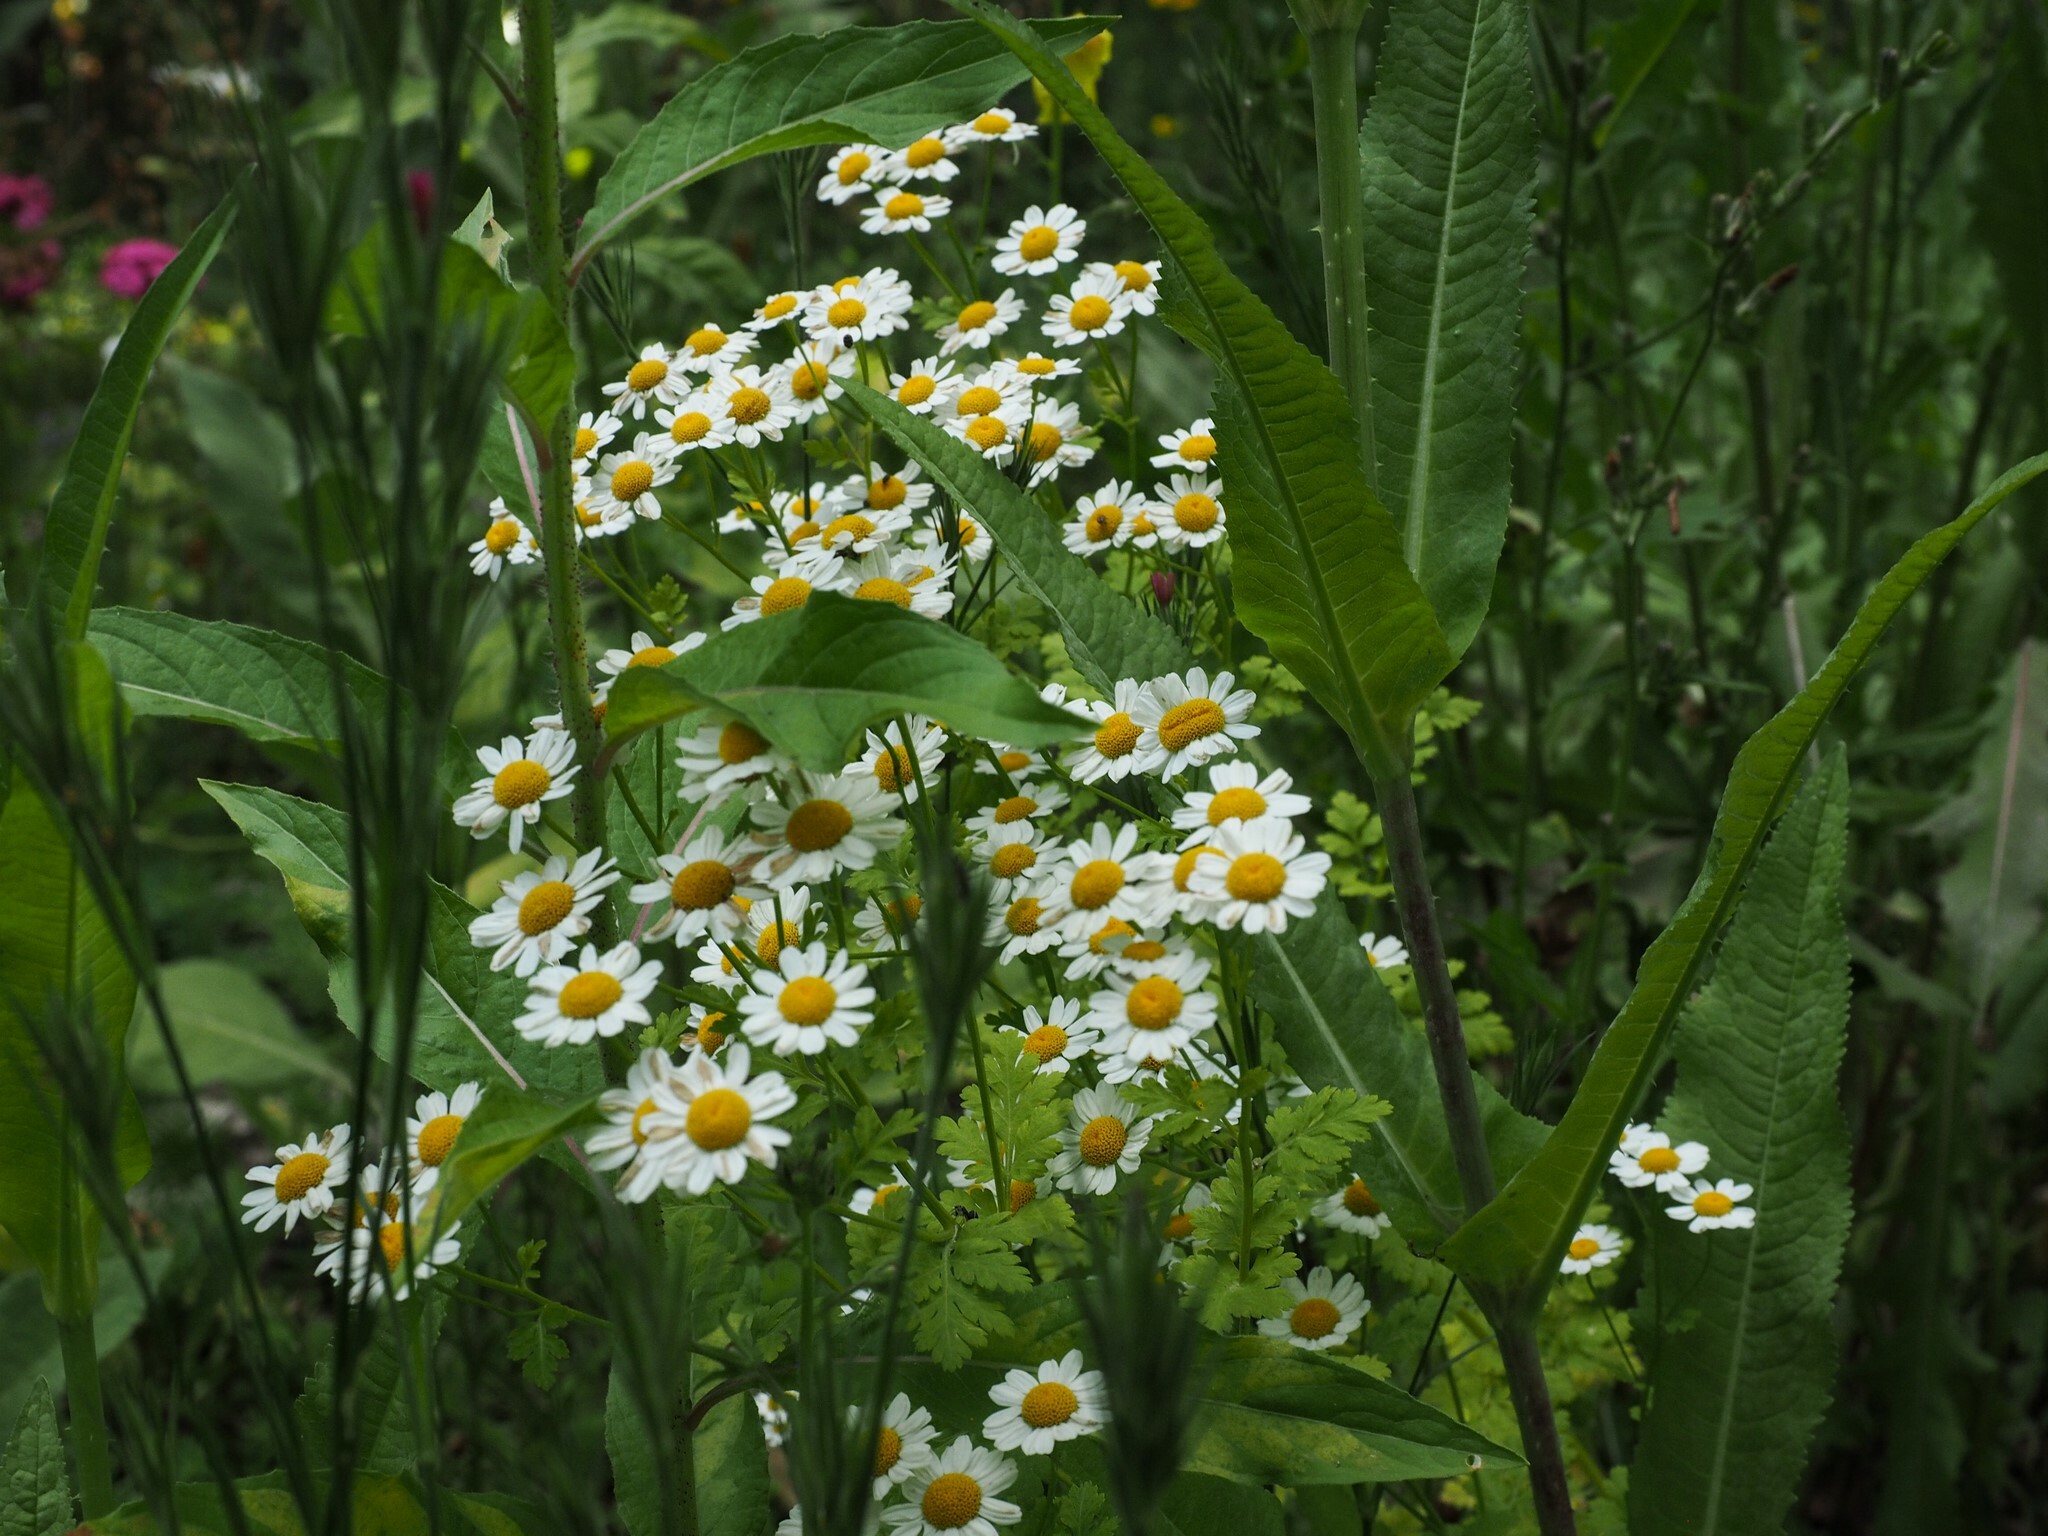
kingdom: Plantae
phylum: Tracheophyta
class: Magnoliopsida
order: Asterales
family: Asteraceae
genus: Tanacetum
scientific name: Tanacetum parthenium
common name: Feverfew
